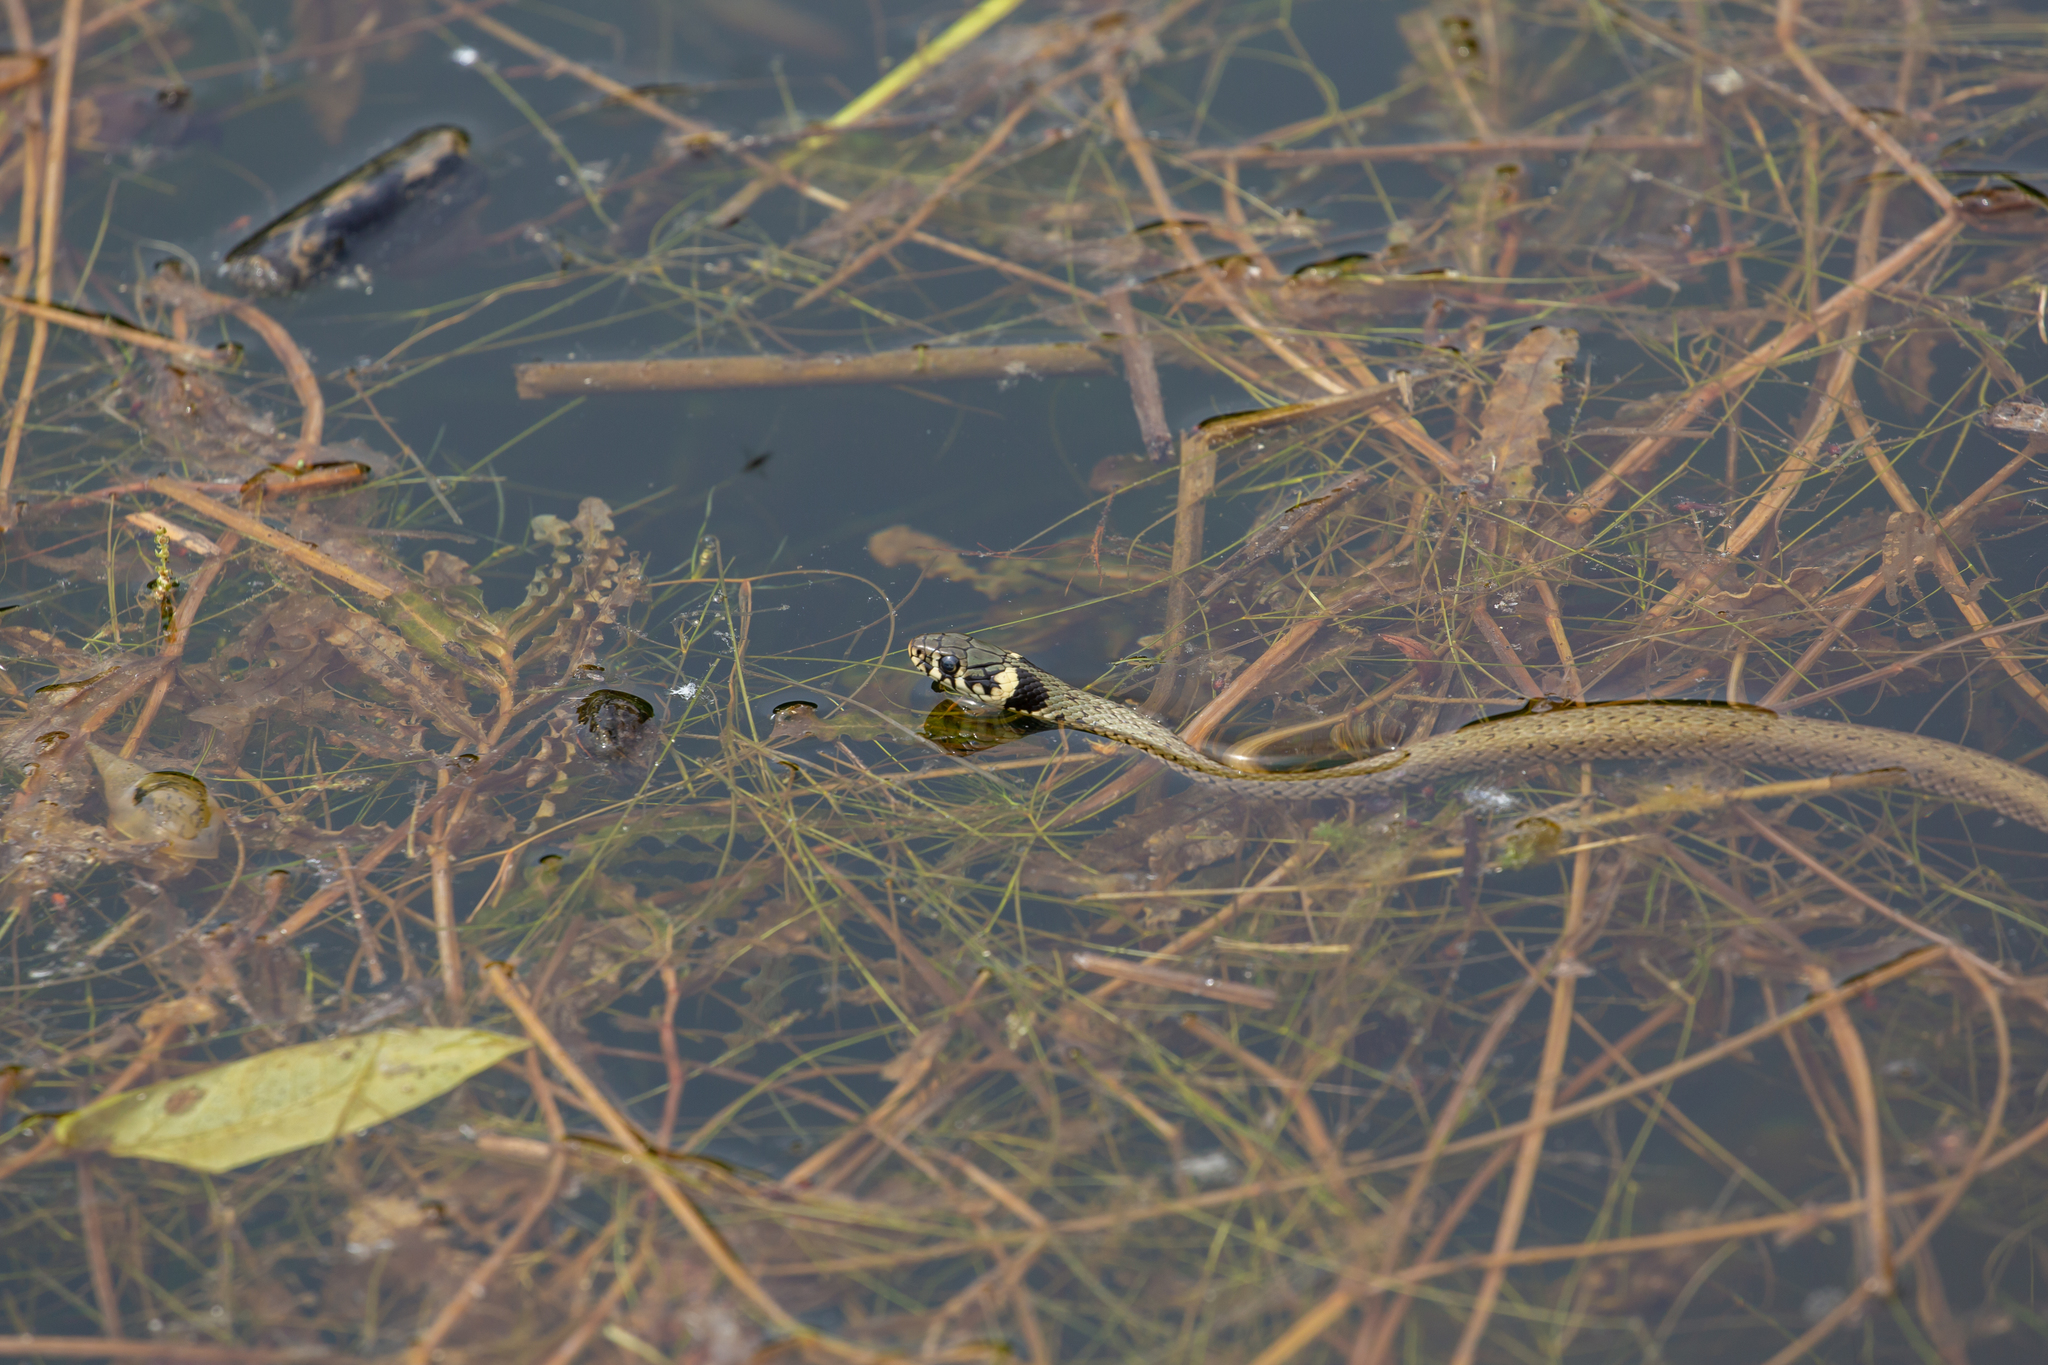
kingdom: Animalia
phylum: Chordata
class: Squamata
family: Colubridae
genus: Natrix
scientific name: Natrix natrix
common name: Grass snake
